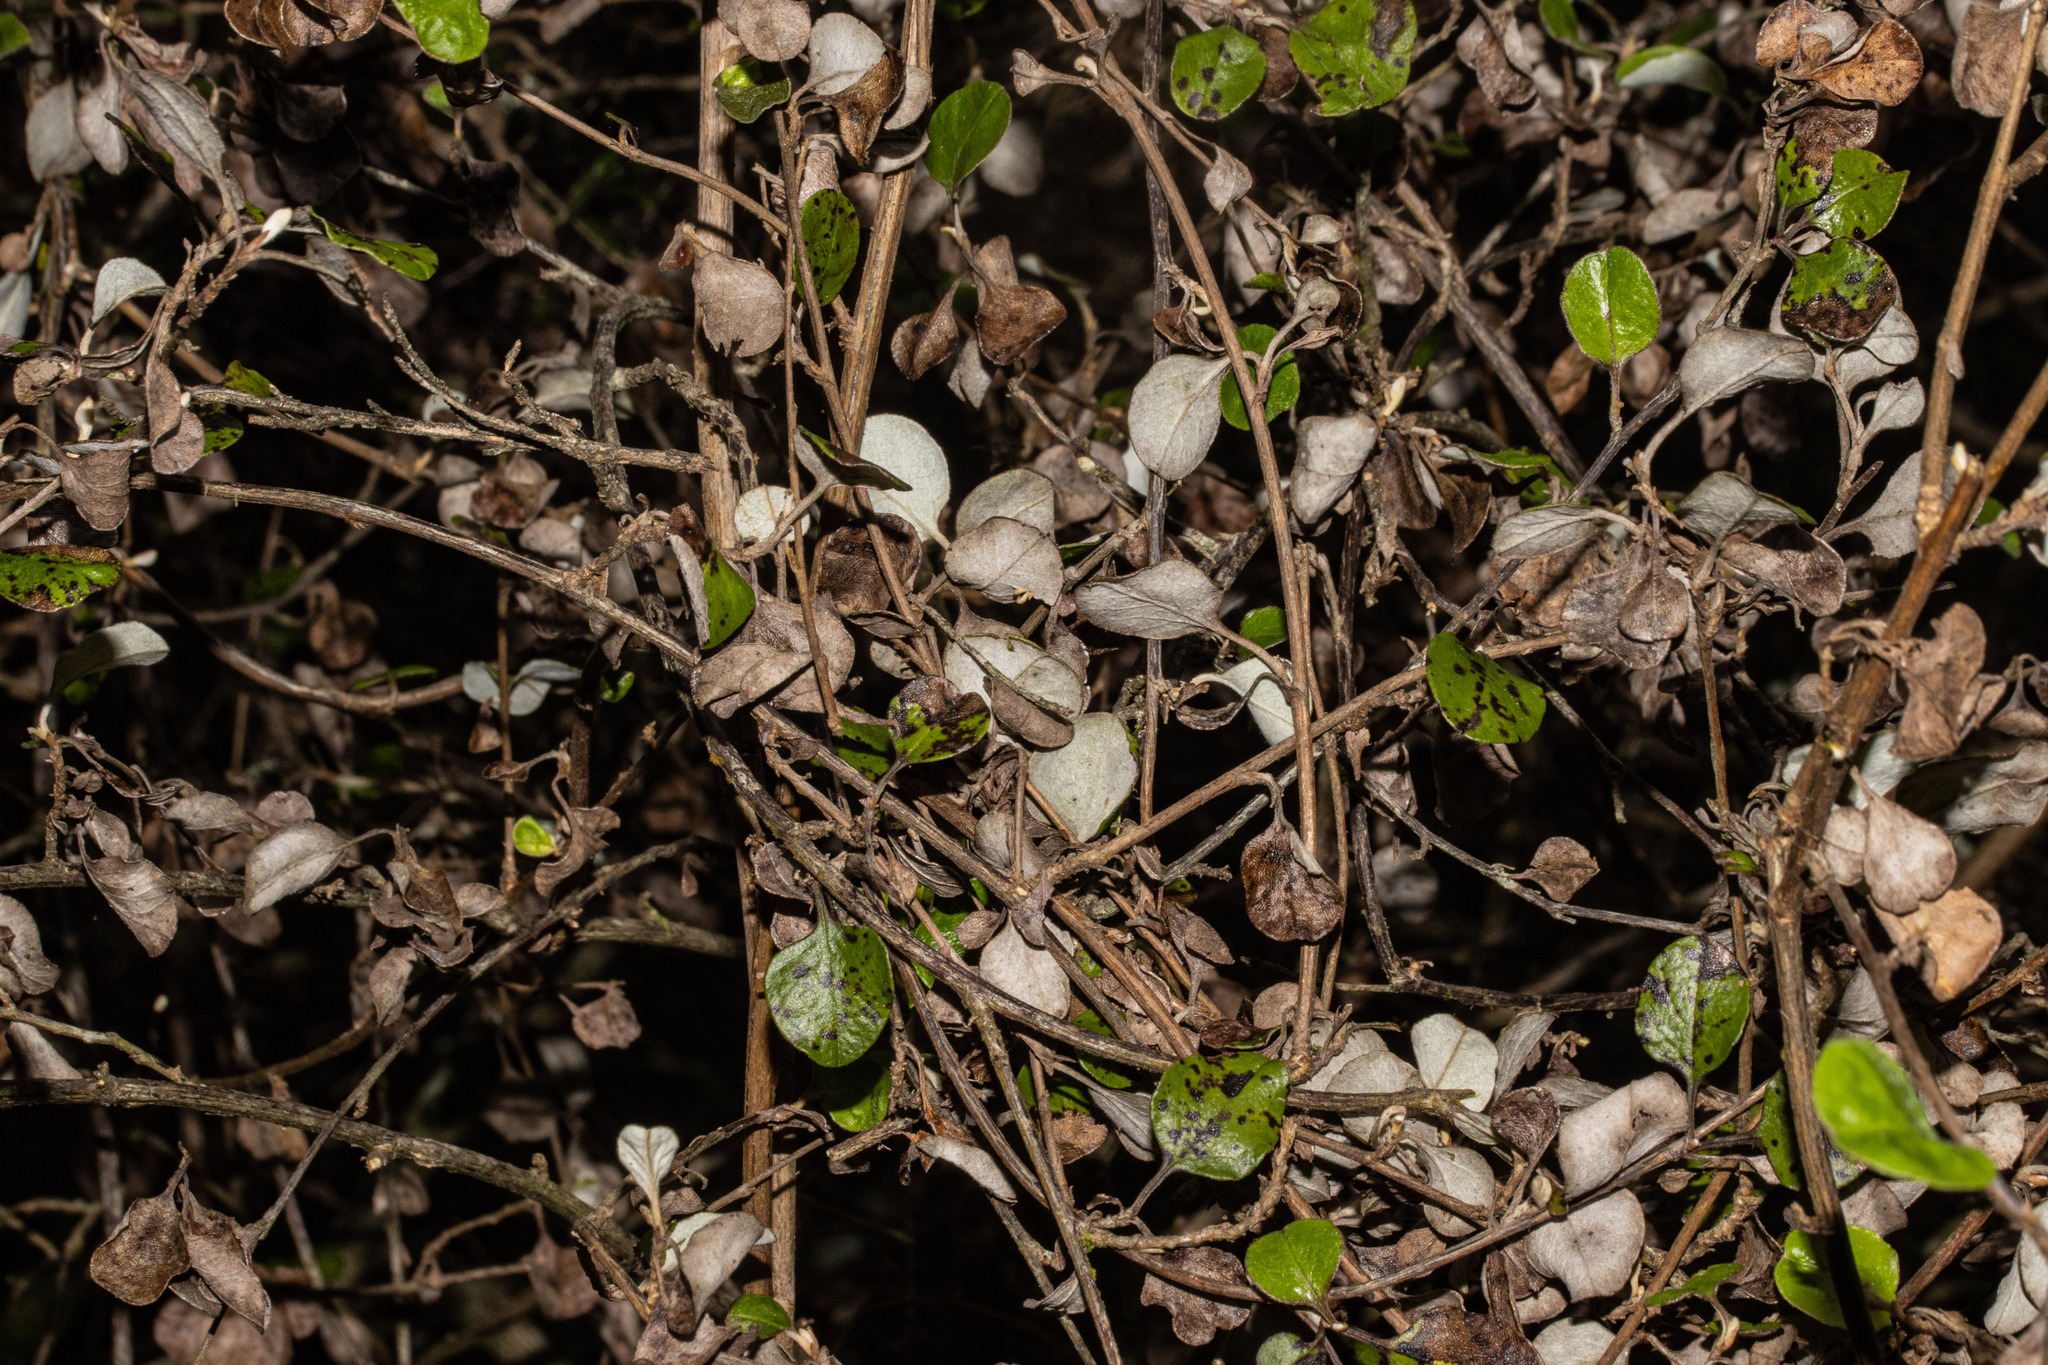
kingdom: Plantae
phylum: Tracheophyta
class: Magnoliopsida
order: Asterales
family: Asteraceae
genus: Ozothamnus
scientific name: Ozothamnus glomeratus
